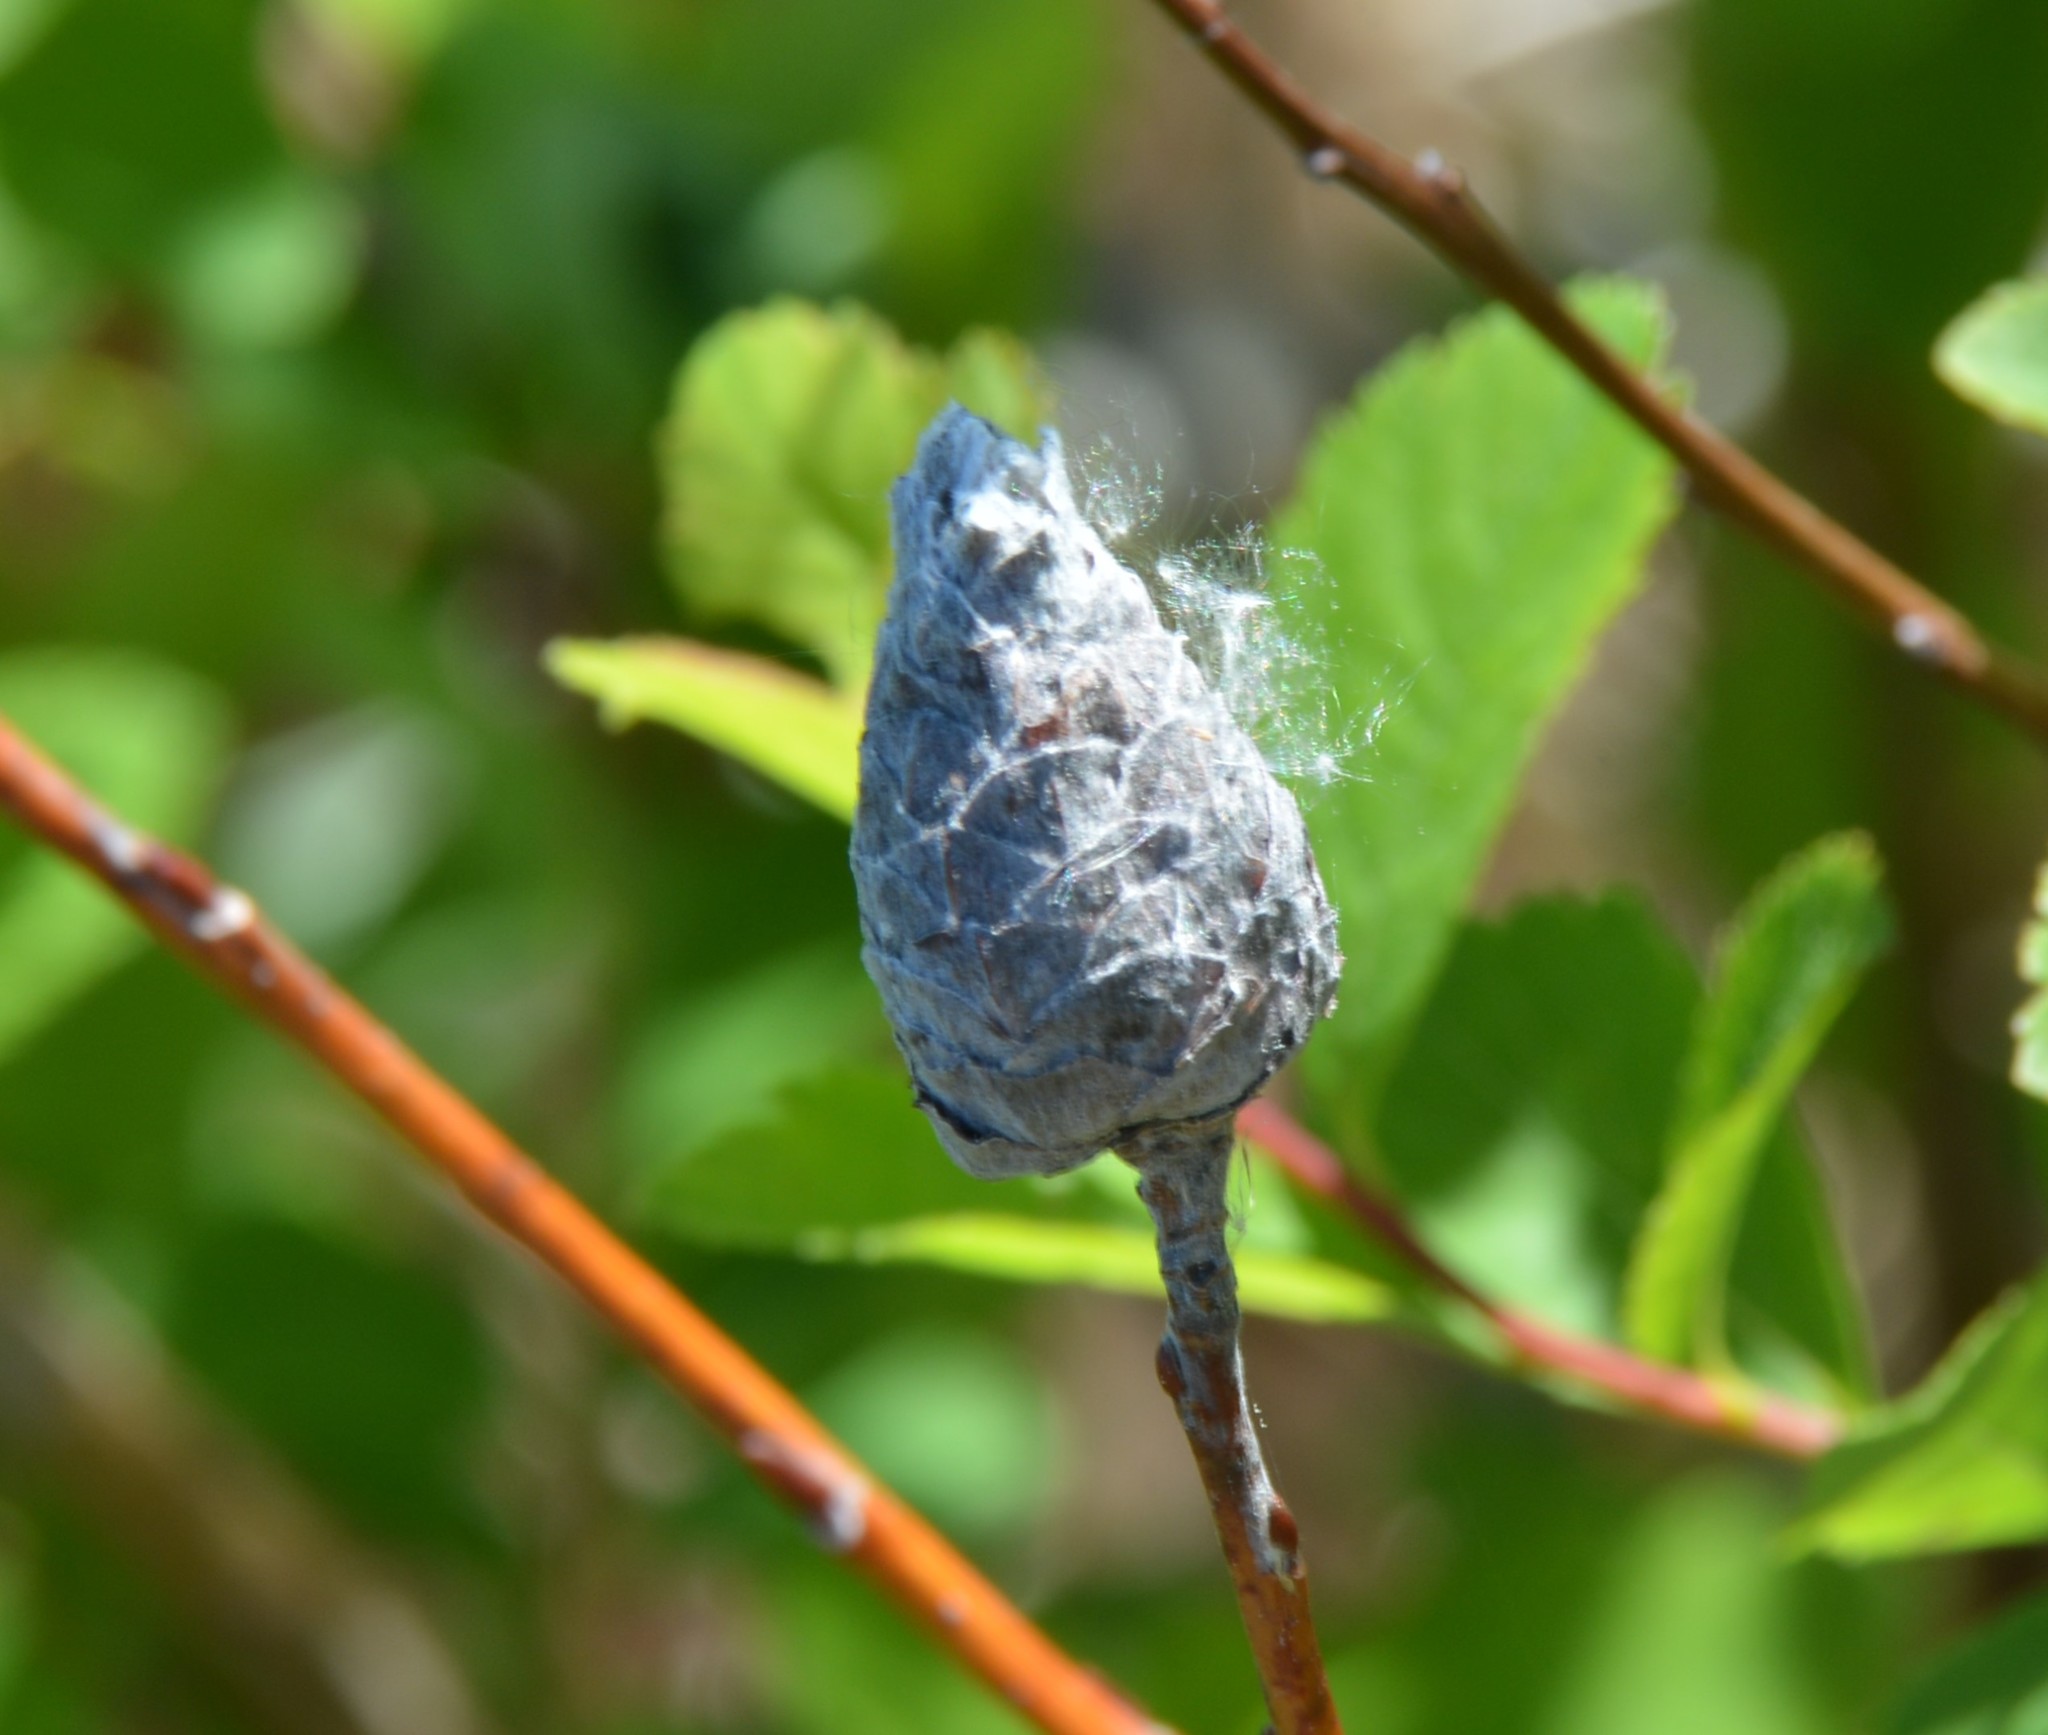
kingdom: Animalia
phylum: Arthropoda
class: Insecta
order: Diptera
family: Cecidomyiidae
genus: Rabdophaga
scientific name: Rabdophaga strobiloides
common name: Willow pinecone gall midge
